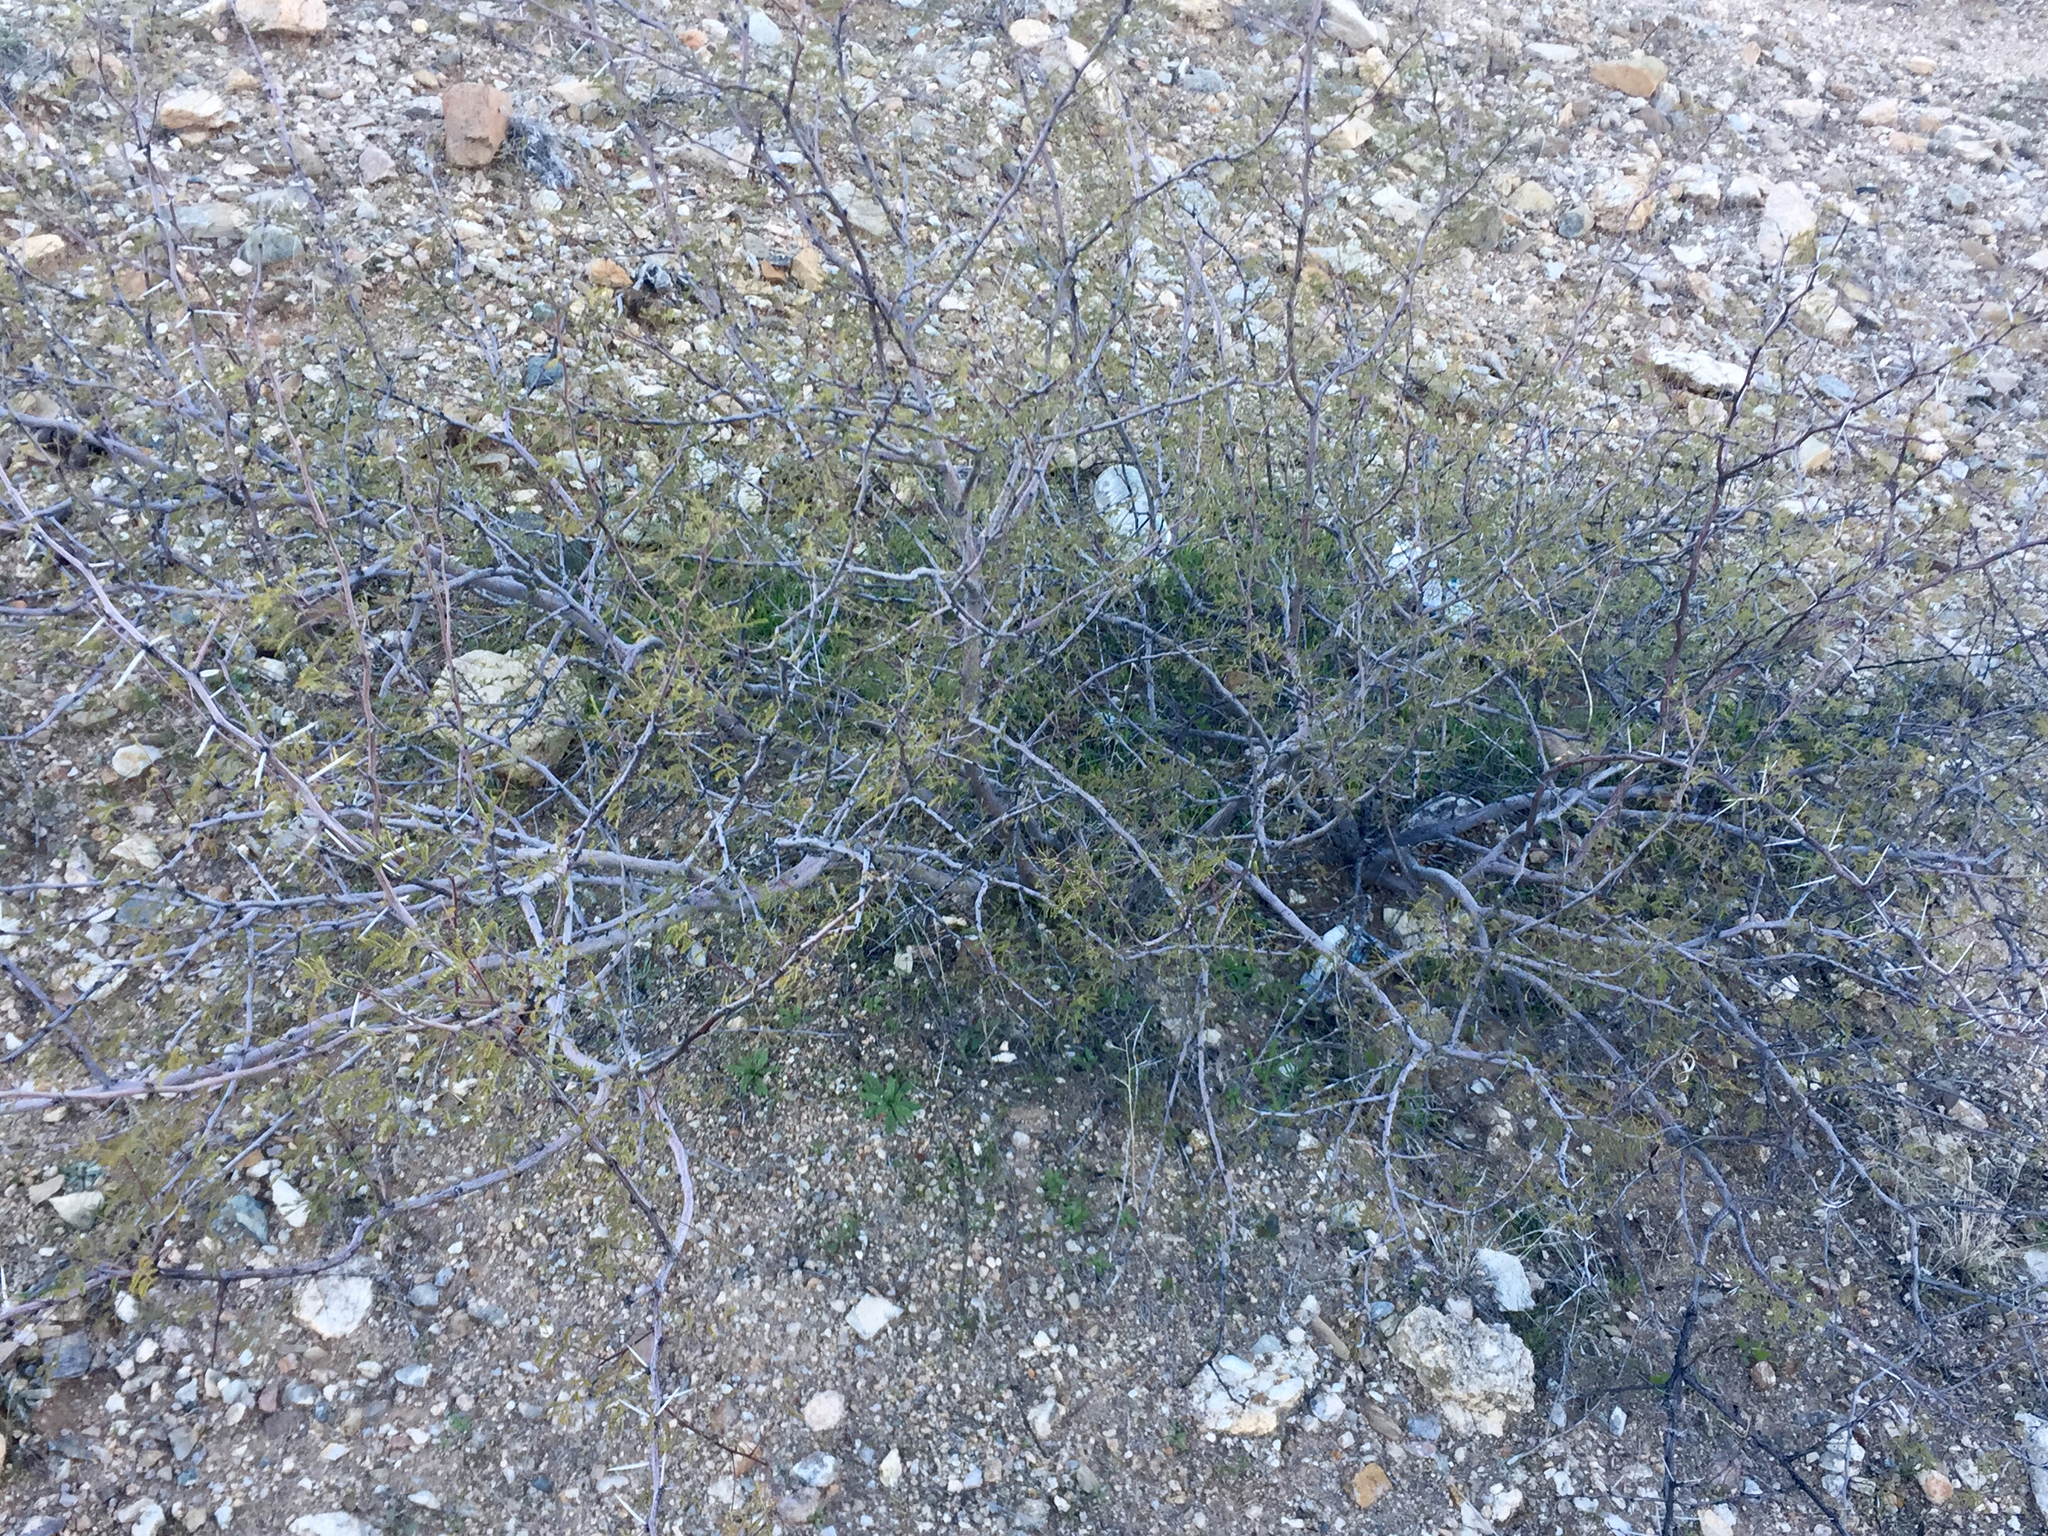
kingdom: Plantae
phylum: Tracheophyta
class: Magnoliopsida
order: Fabales
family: Fabaceae
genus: Vachellia
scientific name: Vachellia constricta
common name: Mescat acacia
